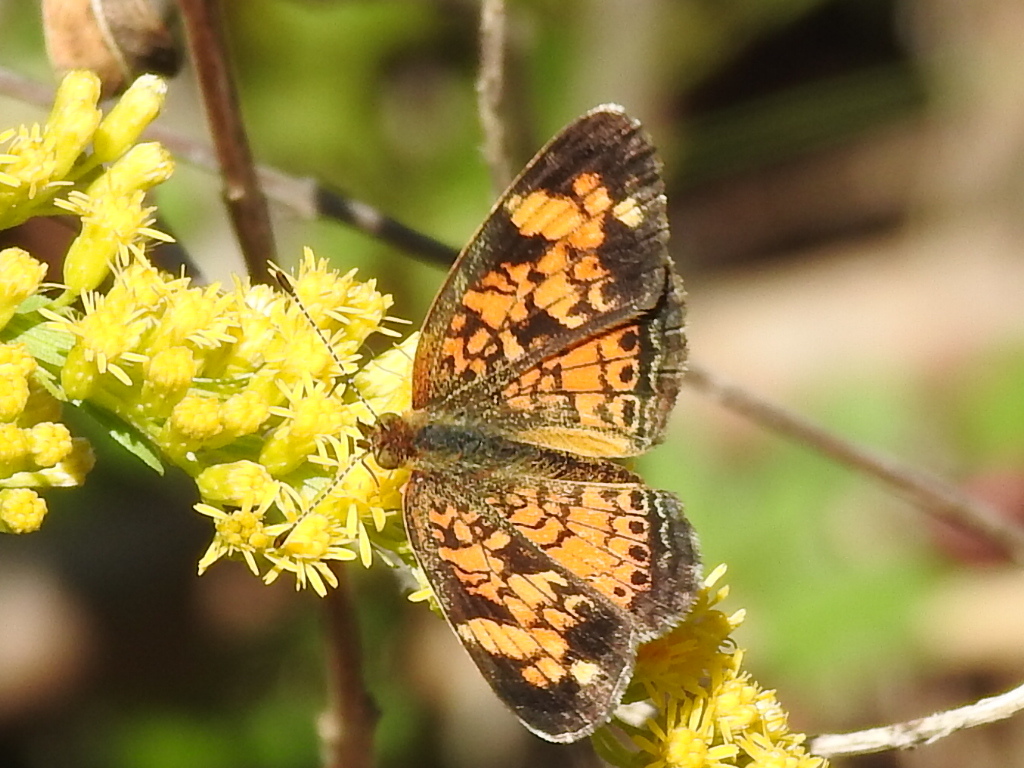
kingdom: Animalia
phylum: Arthropoda
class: Insecta
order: Lepidoptera
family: Nymphalidae
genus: Phyciodes
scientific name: Phyciodes tharos
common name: Pearl crescent
